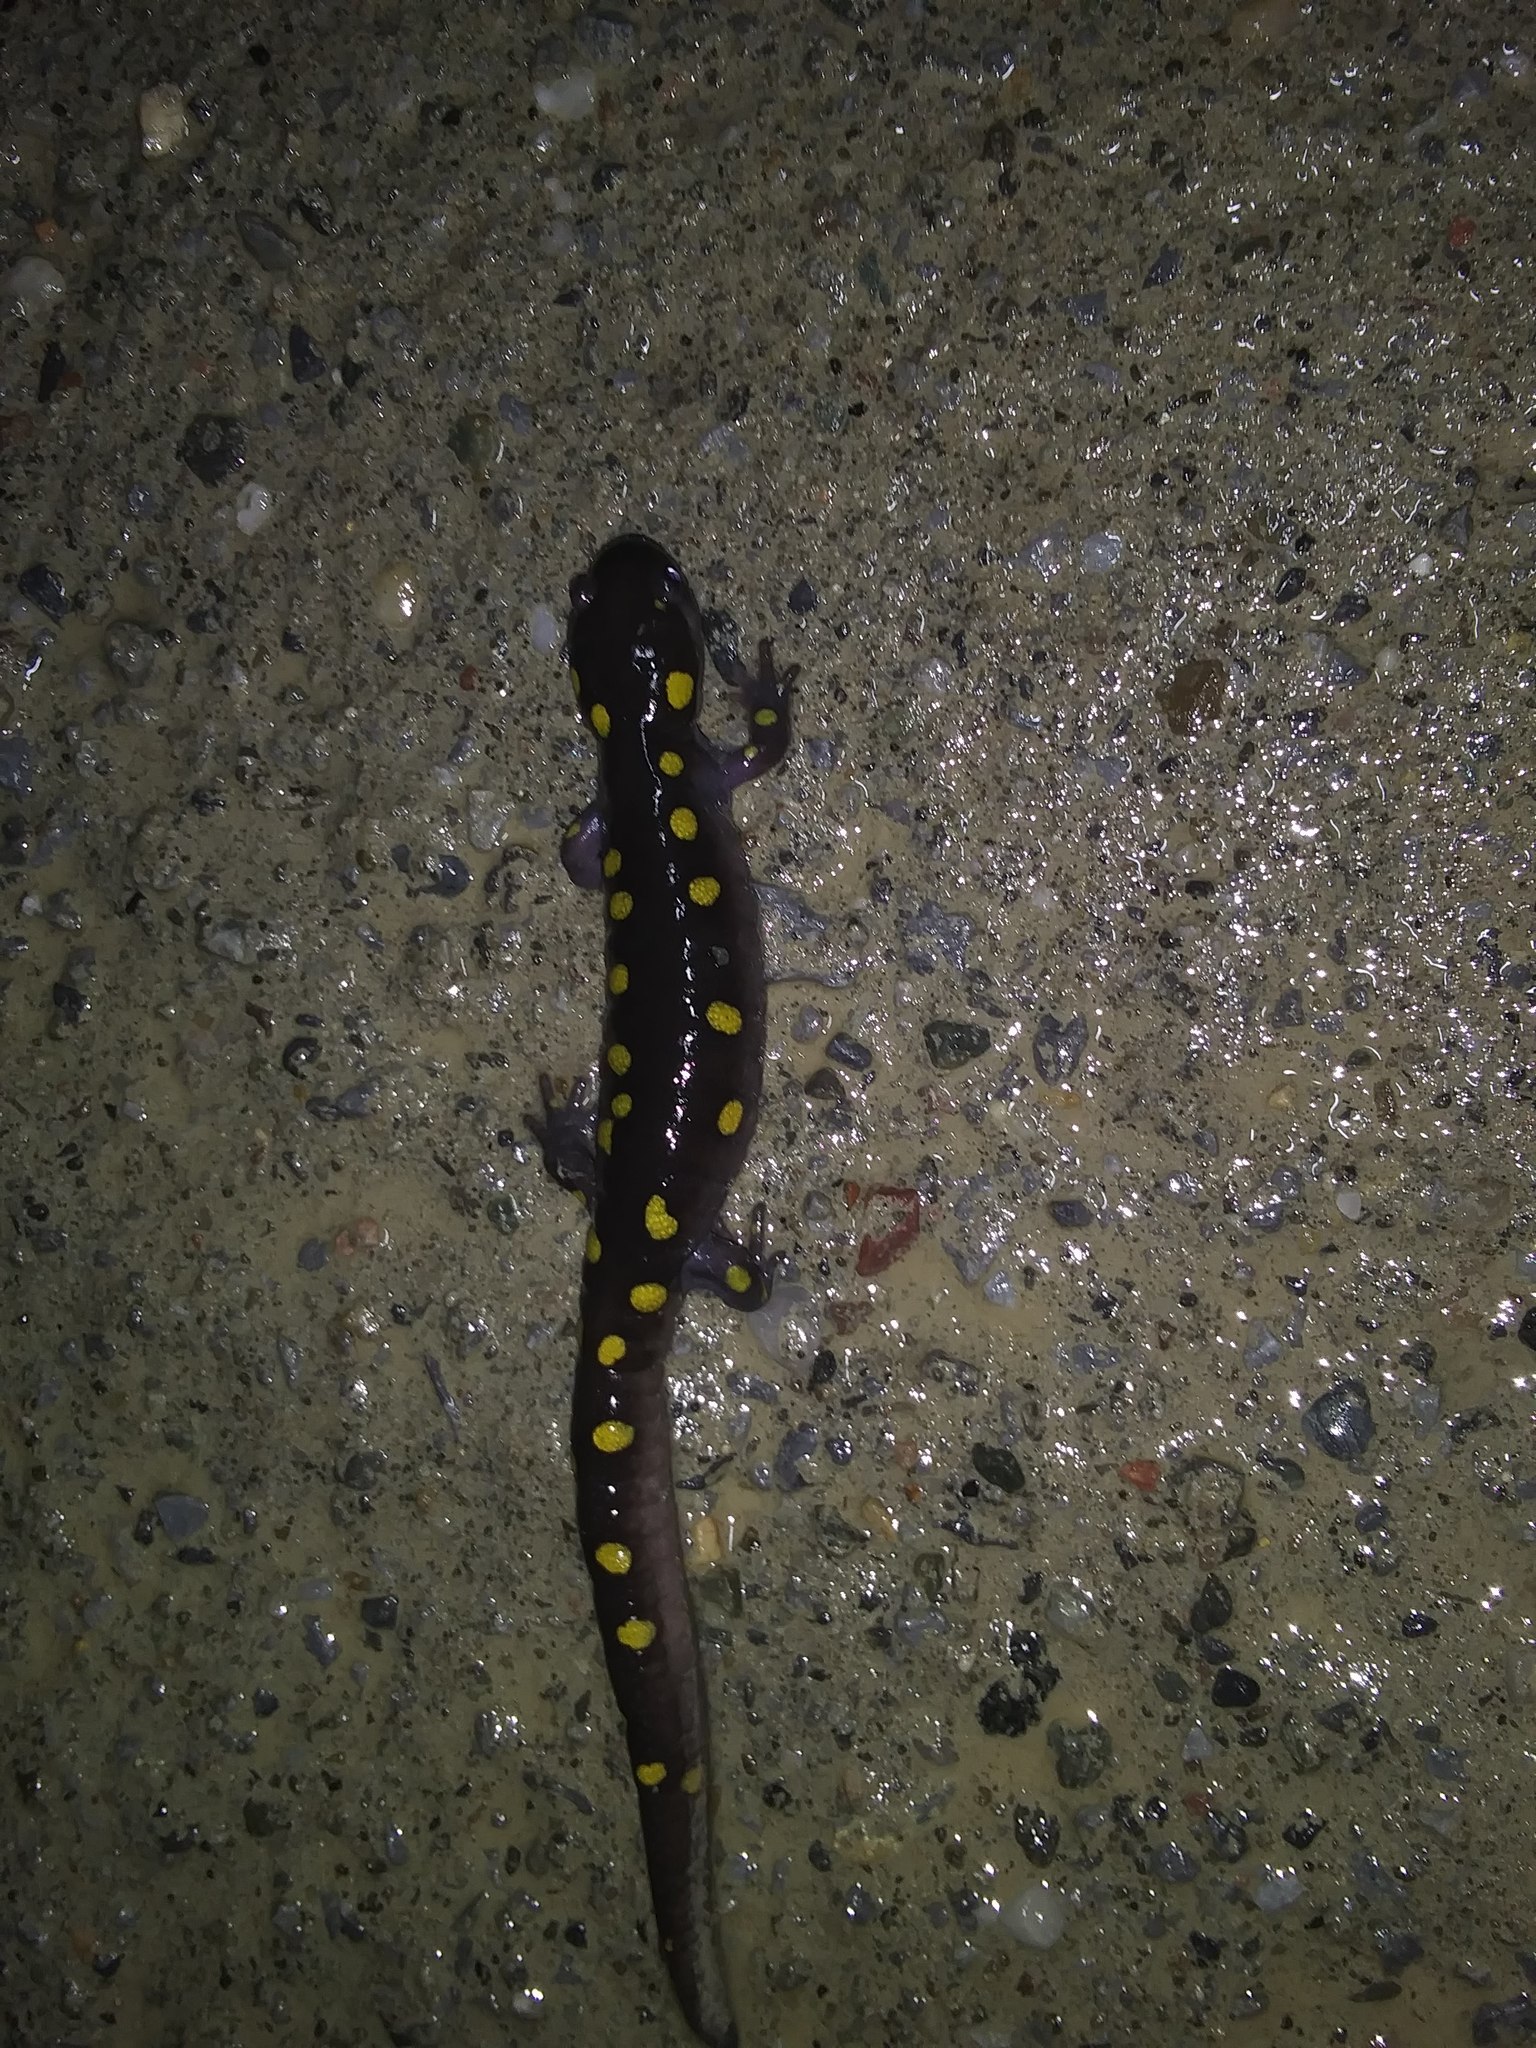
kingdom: Animalia
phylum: Chordata
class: Amphibia
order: Caudata
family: Ambystomatidae
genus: Ambystoma
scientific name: Ambystoma maculatum
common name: Spotted salamander
